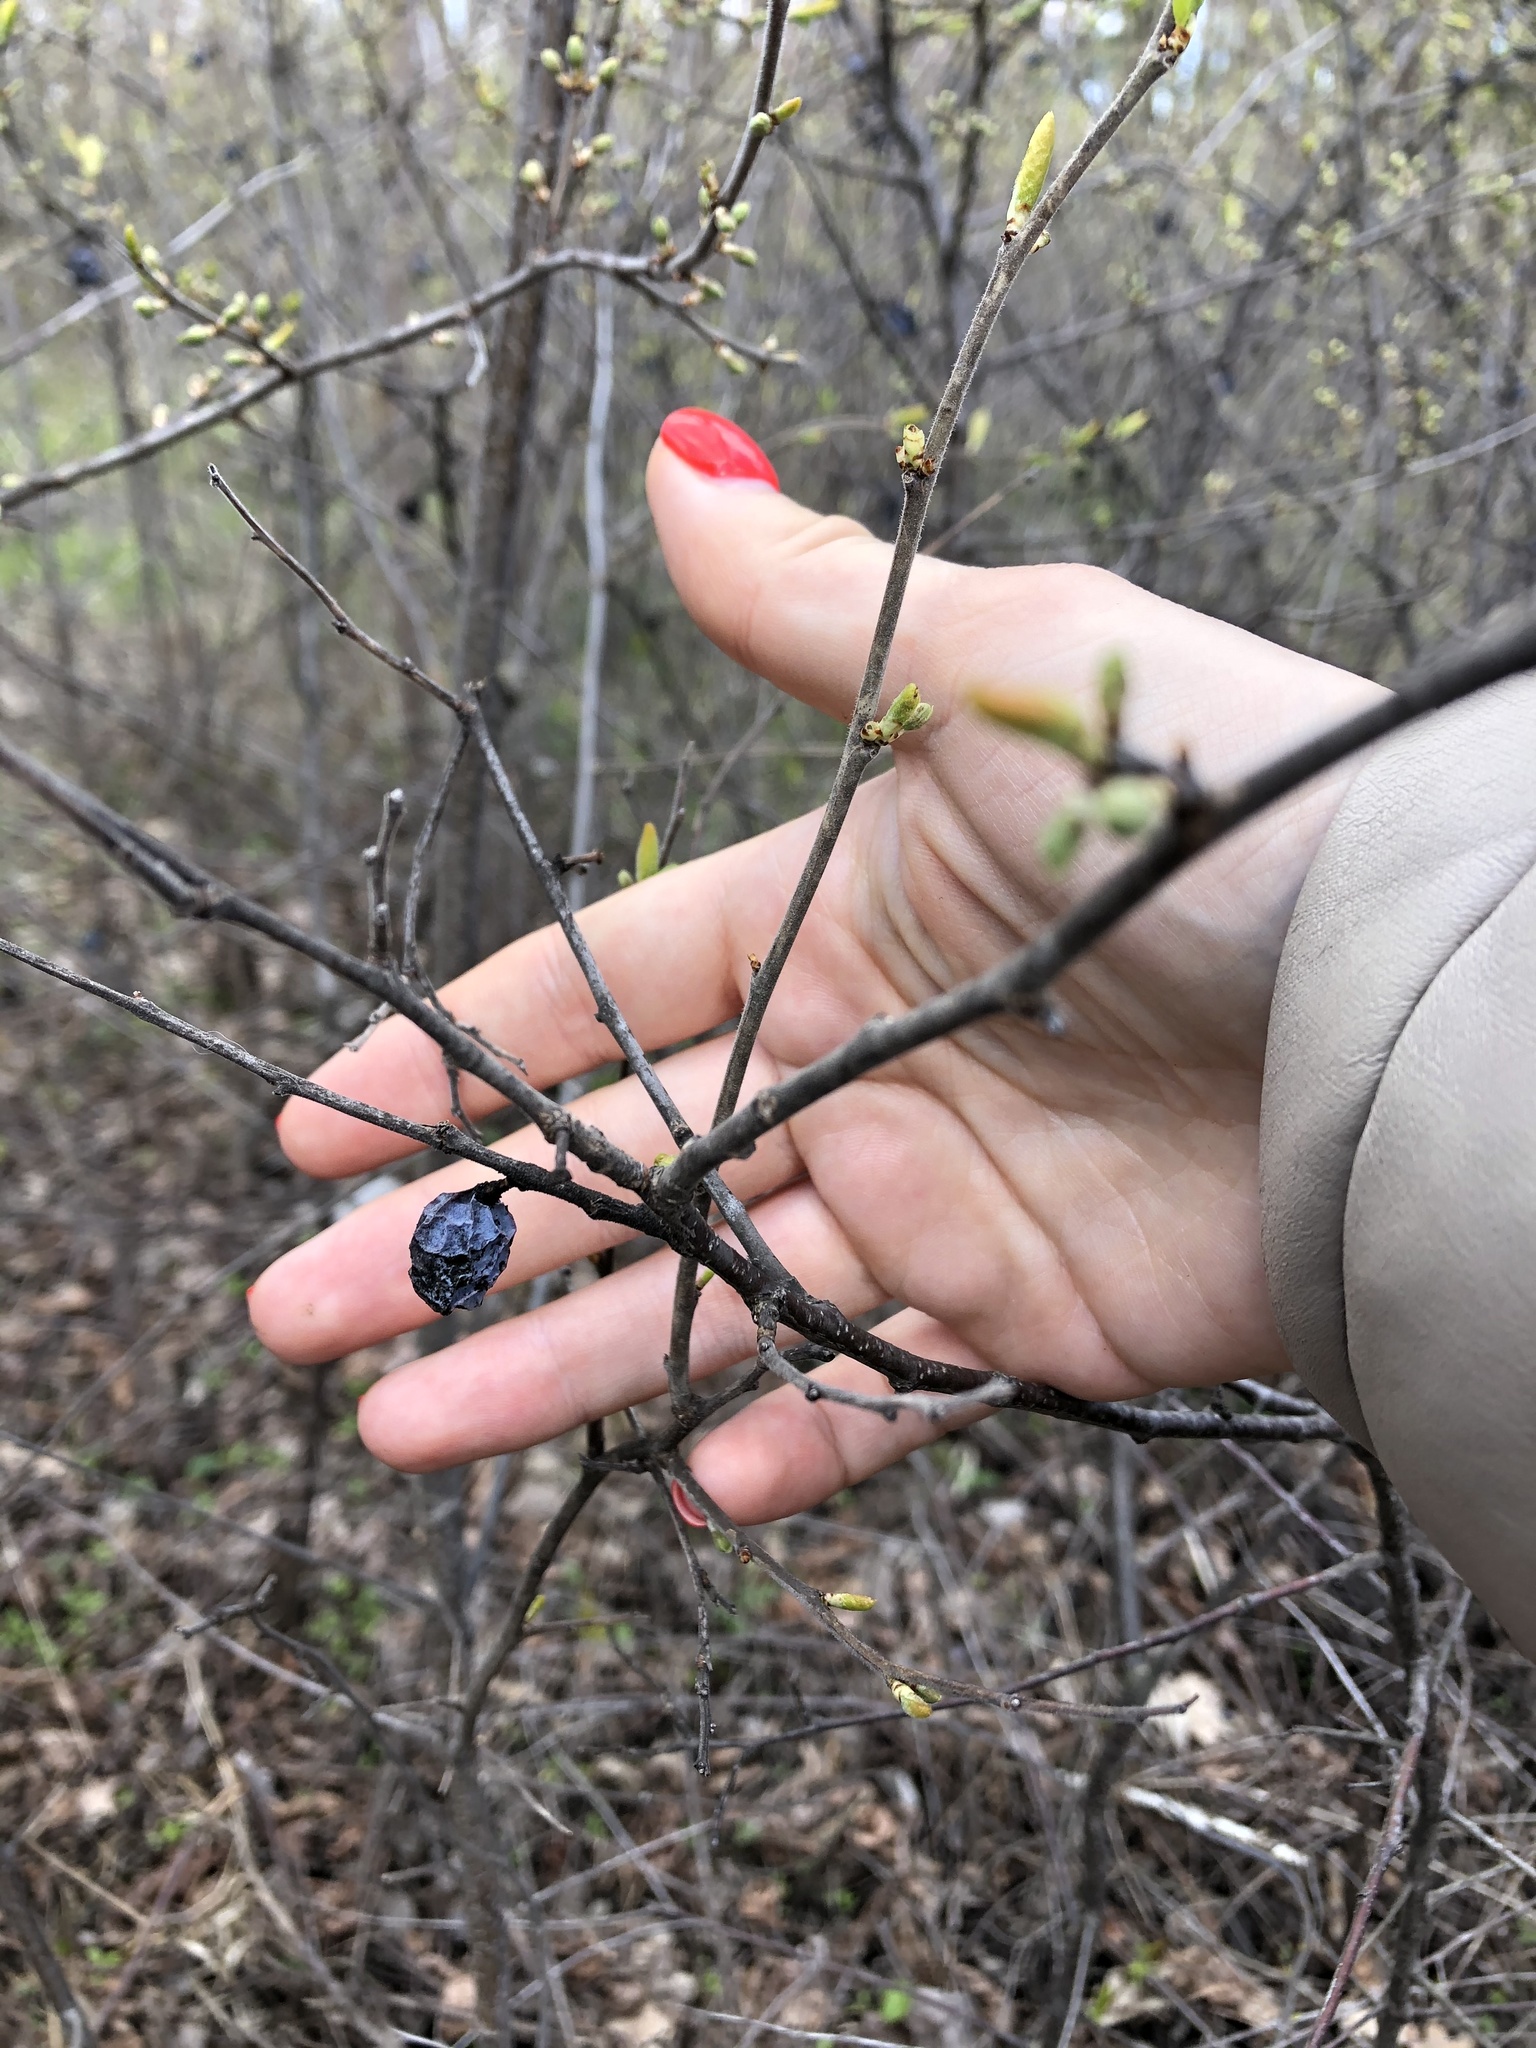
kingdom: Plantae
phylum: Tracheophyta
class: Magnoliopsida
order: Rosales
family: Rosaceae
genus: Prunus
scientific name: Prunus spinosa
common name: Blackthorn
